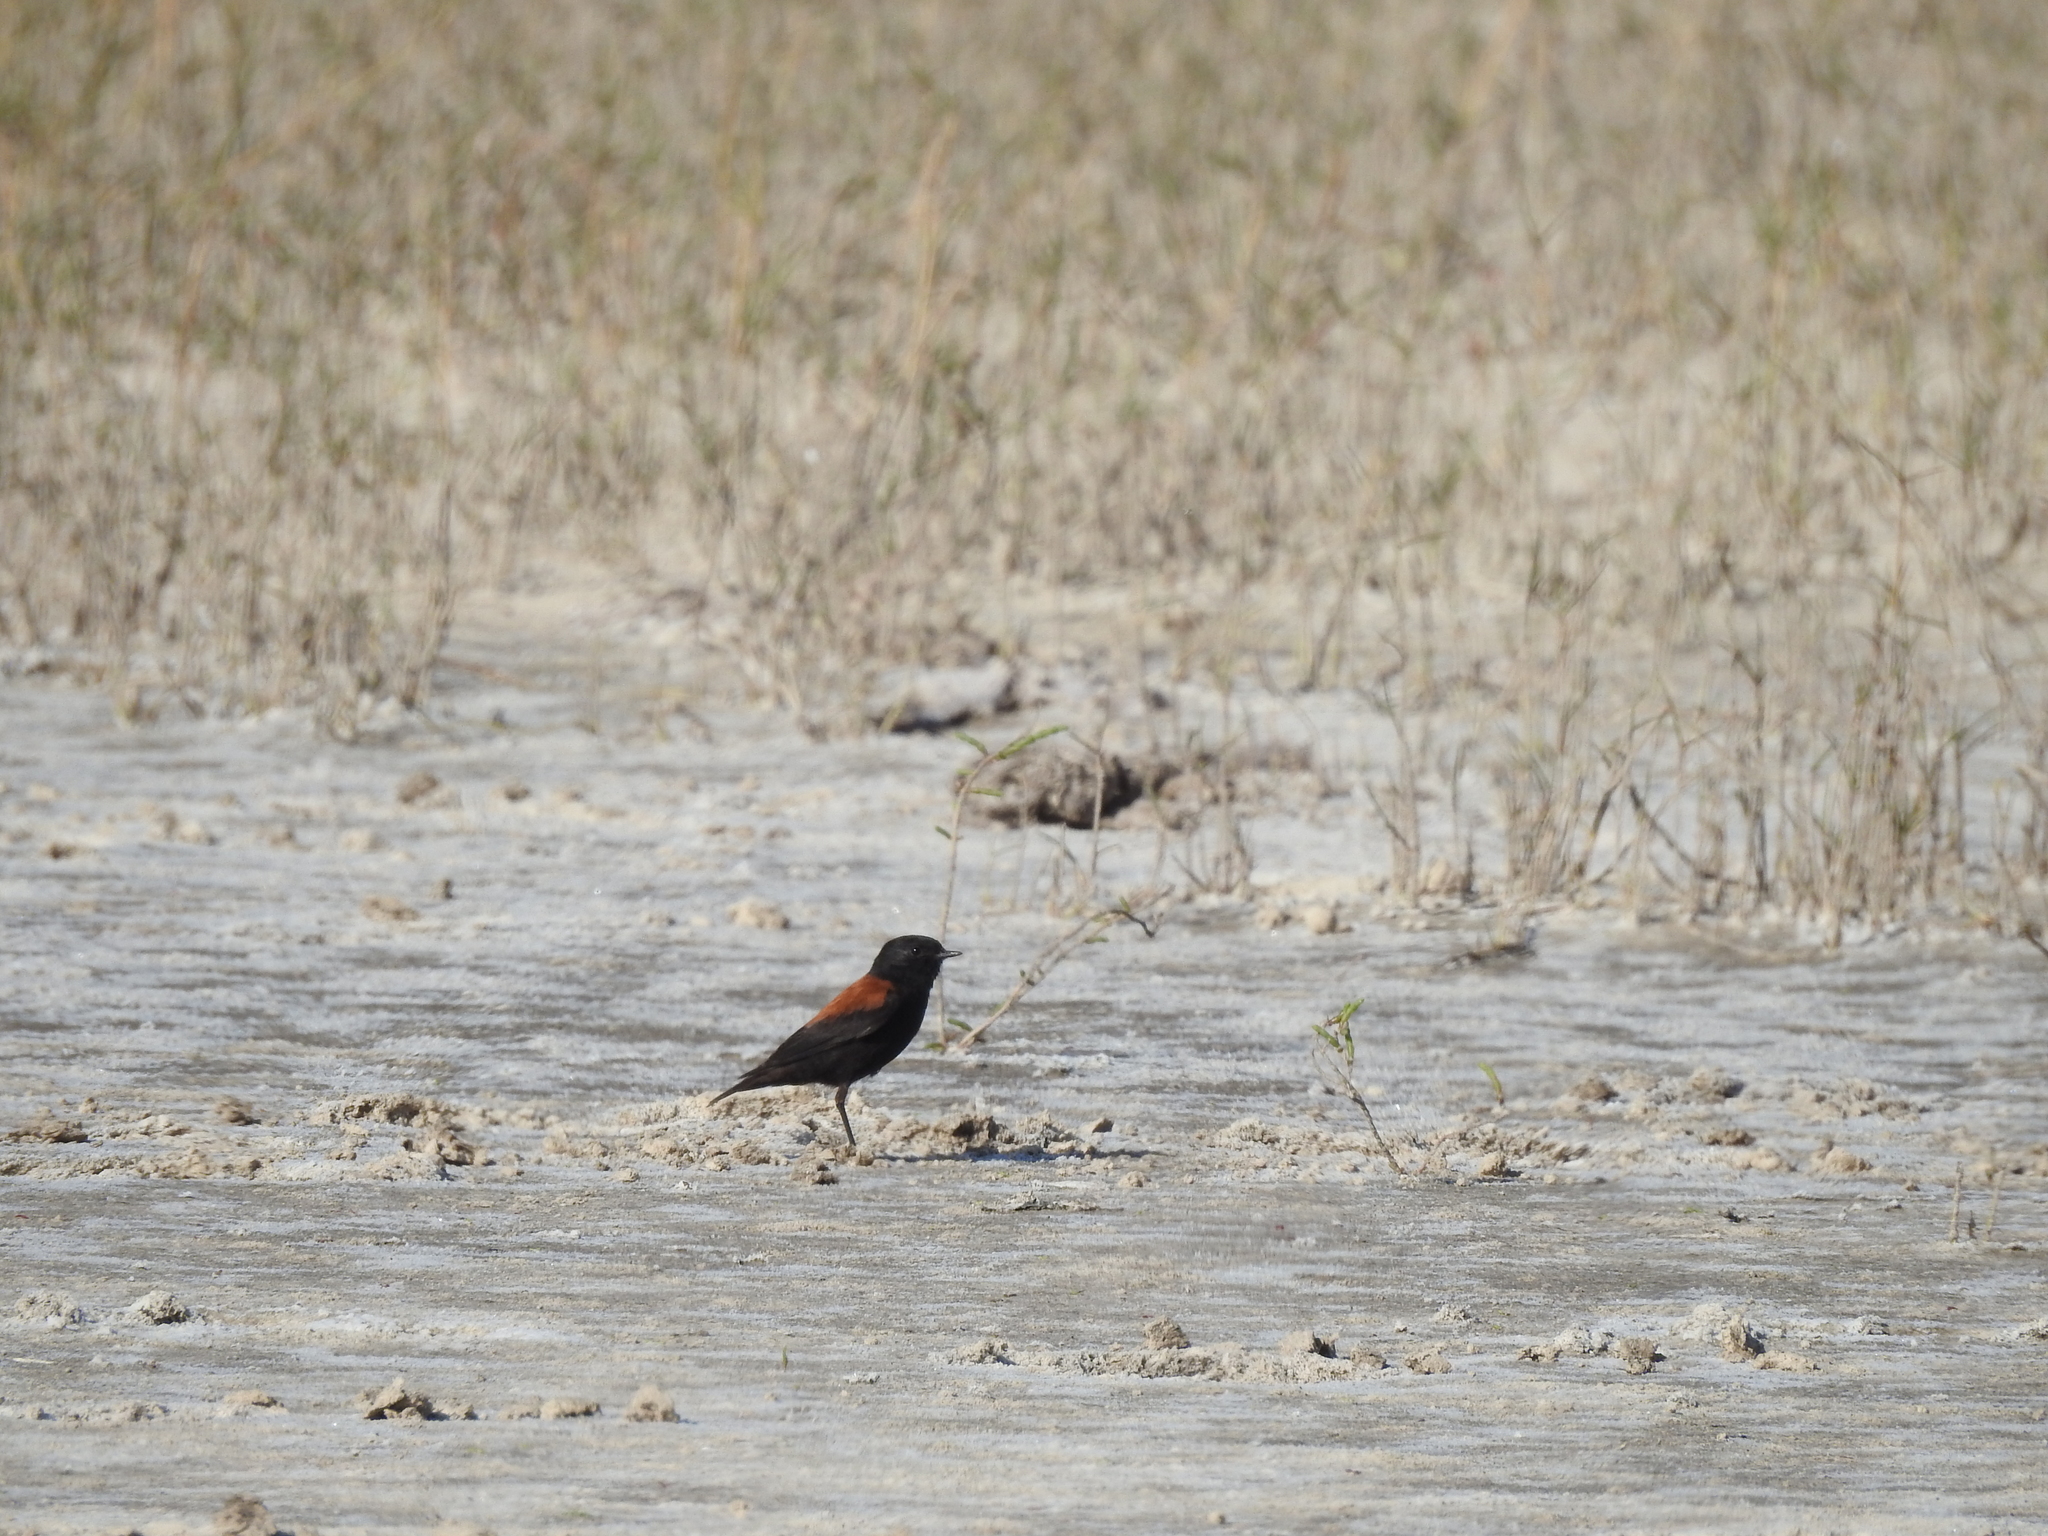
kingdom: Animalia
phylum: Chordata
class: Aves
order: Passeriformes
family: Tyrannidae
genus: Lessonia
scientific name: Lessonia rufa
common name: Austral negrito
